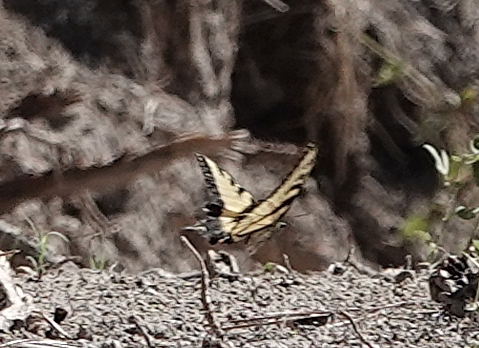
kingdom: Animalia
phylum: Arthropoda
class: Insecta
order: Lepidoptera
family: Papilionidae
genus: Papilio
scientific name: Papilio glaucus
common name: Tiger swallowtail
